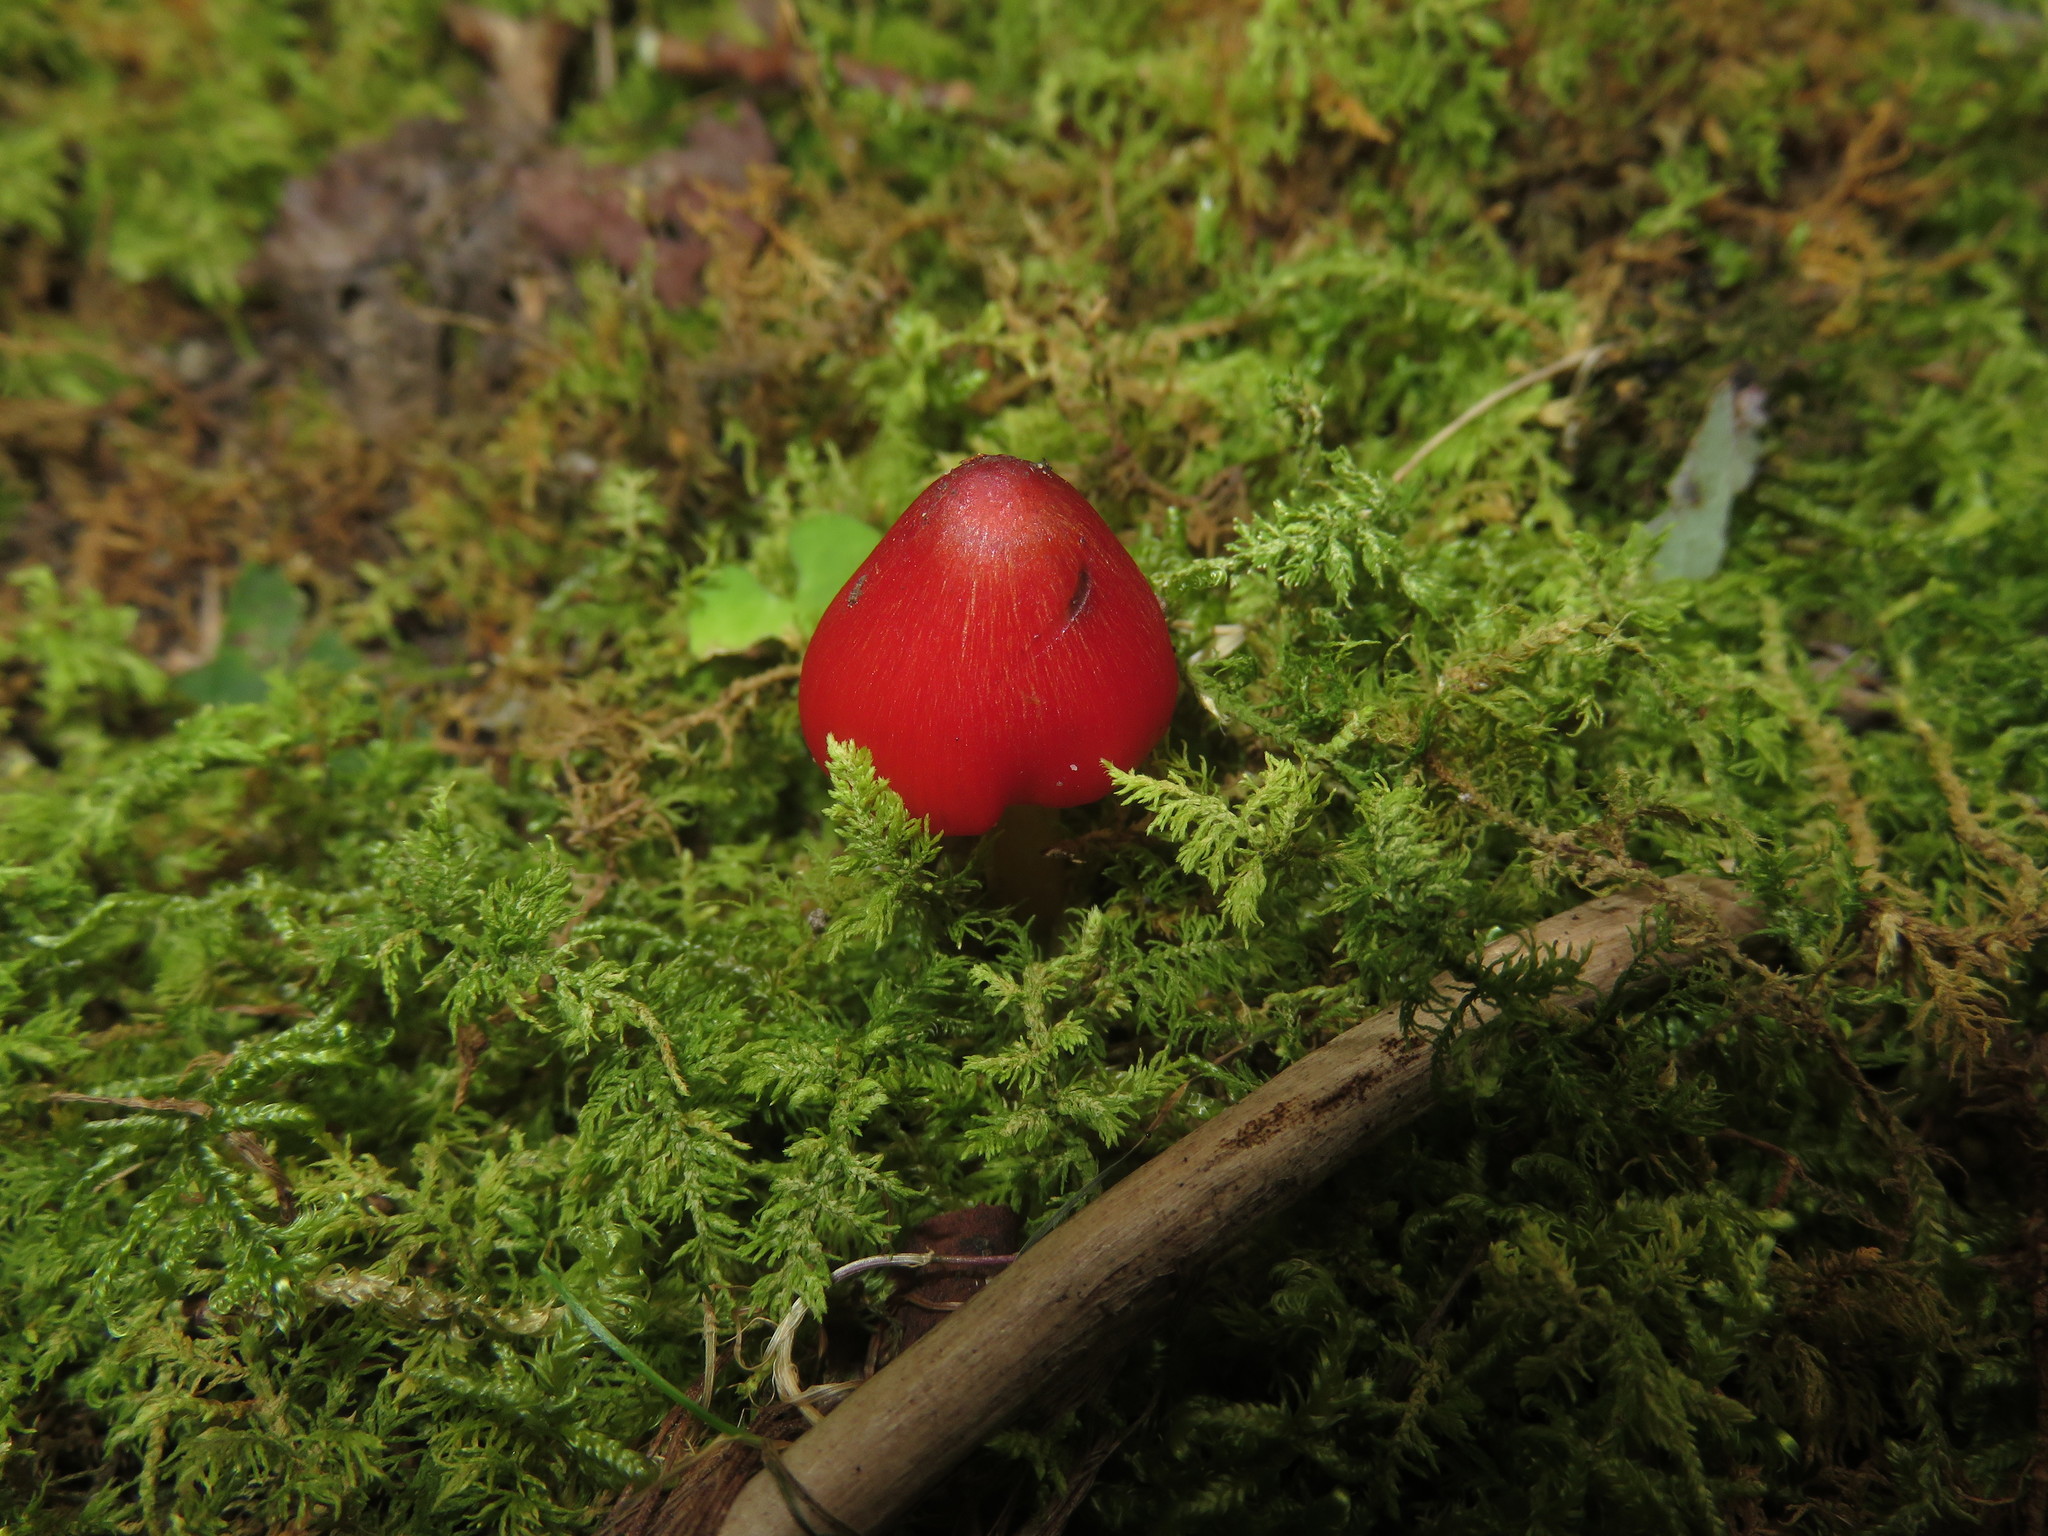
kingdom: Fungi
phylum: Basidiomycota
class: Agaricomycetes
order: Agaricales
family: Hygrophoraceae
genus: Hygrocybe
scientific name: Hygrocybe conica
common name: Blackening wax-cap
